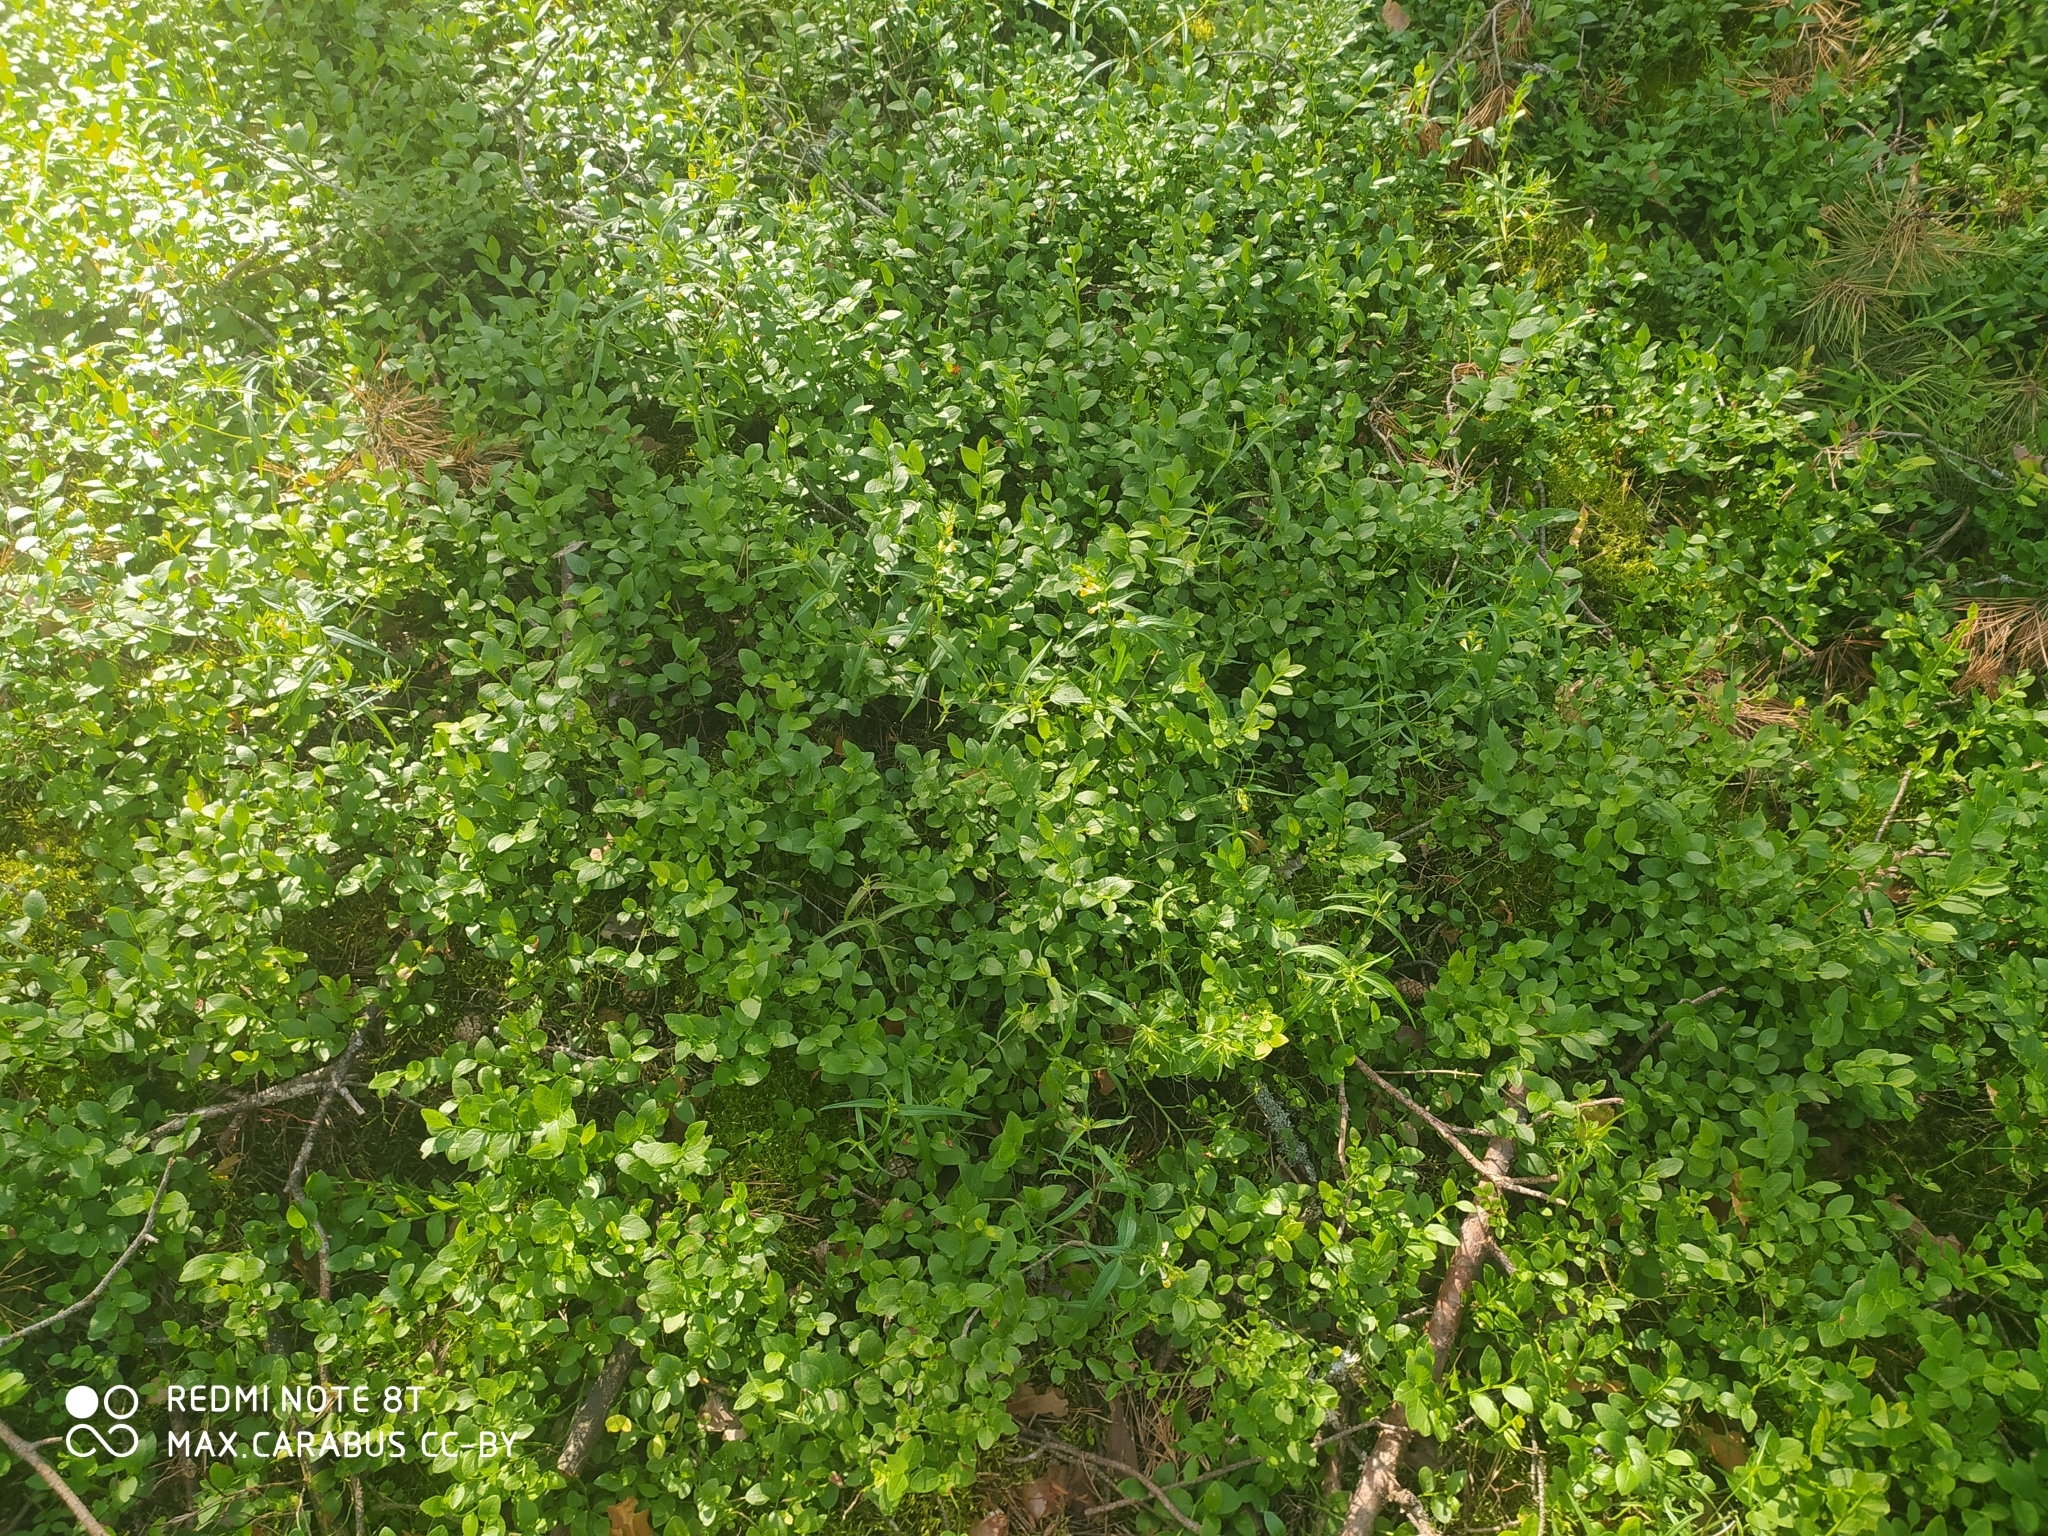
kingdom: Plantae
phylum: Tracheophyta
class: Magnoliopsida
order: Ericales
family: Ericaceae
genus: Vaccinium
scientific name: Vaccinium myrtillus
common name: Bilberry
